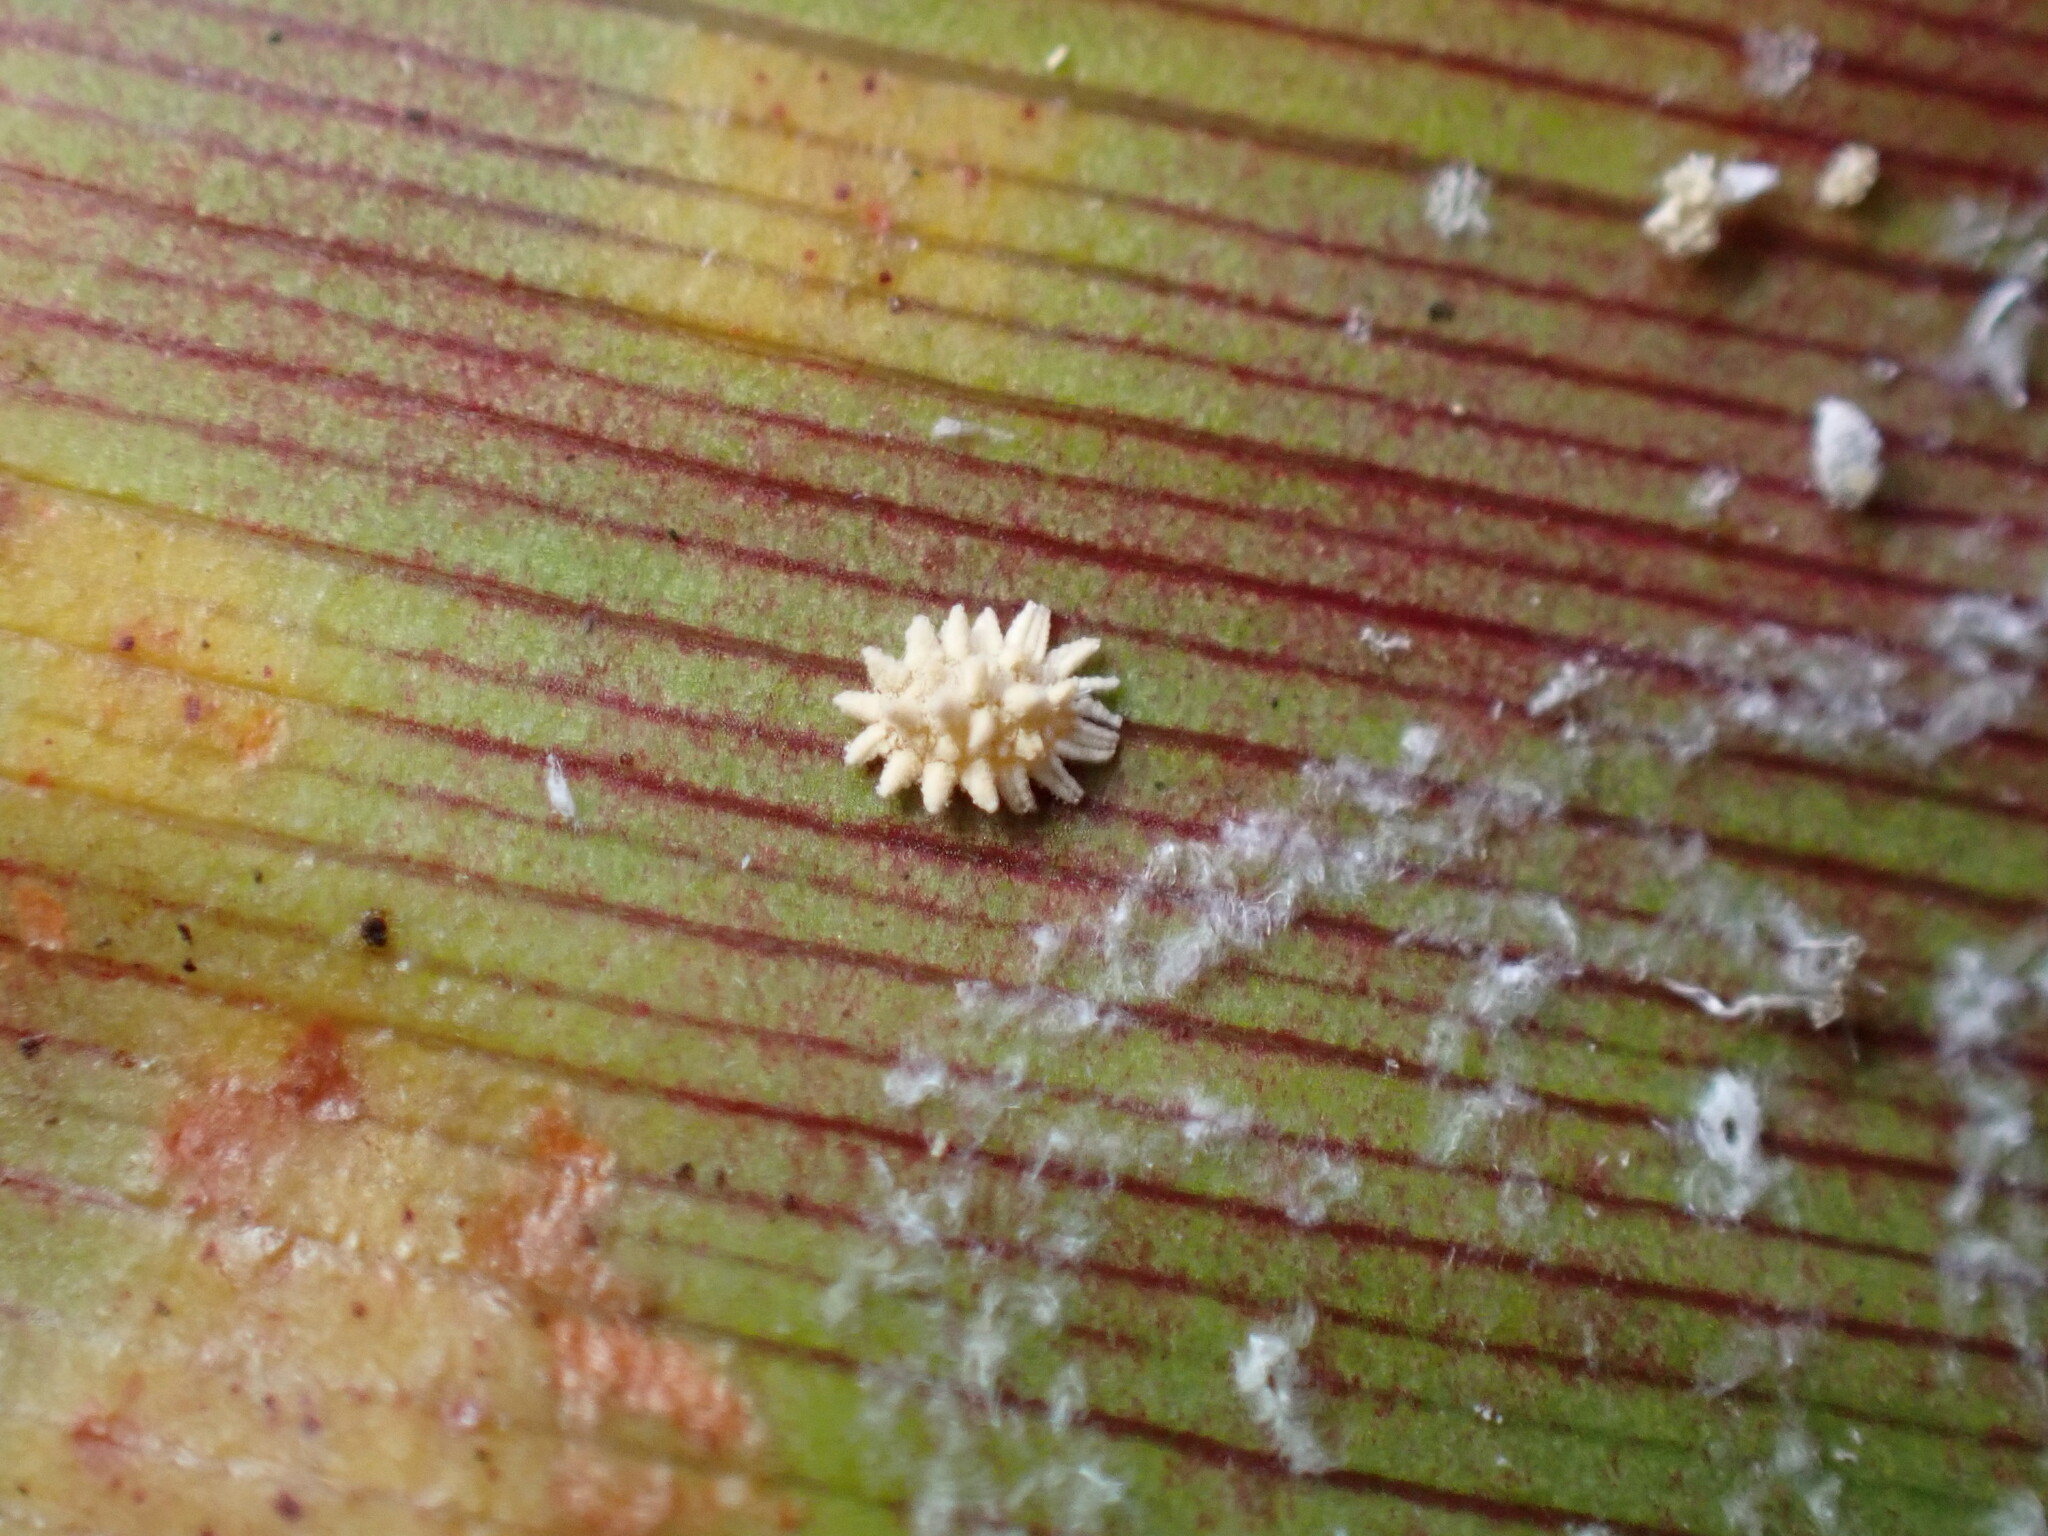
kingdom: Animalia
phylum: Arthropoda
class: Insecta
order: Hemiptera
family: Pseudococcidae
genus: Nipaecoccus
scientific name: Nipaecoccus nipae
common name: Kentia mealybug
